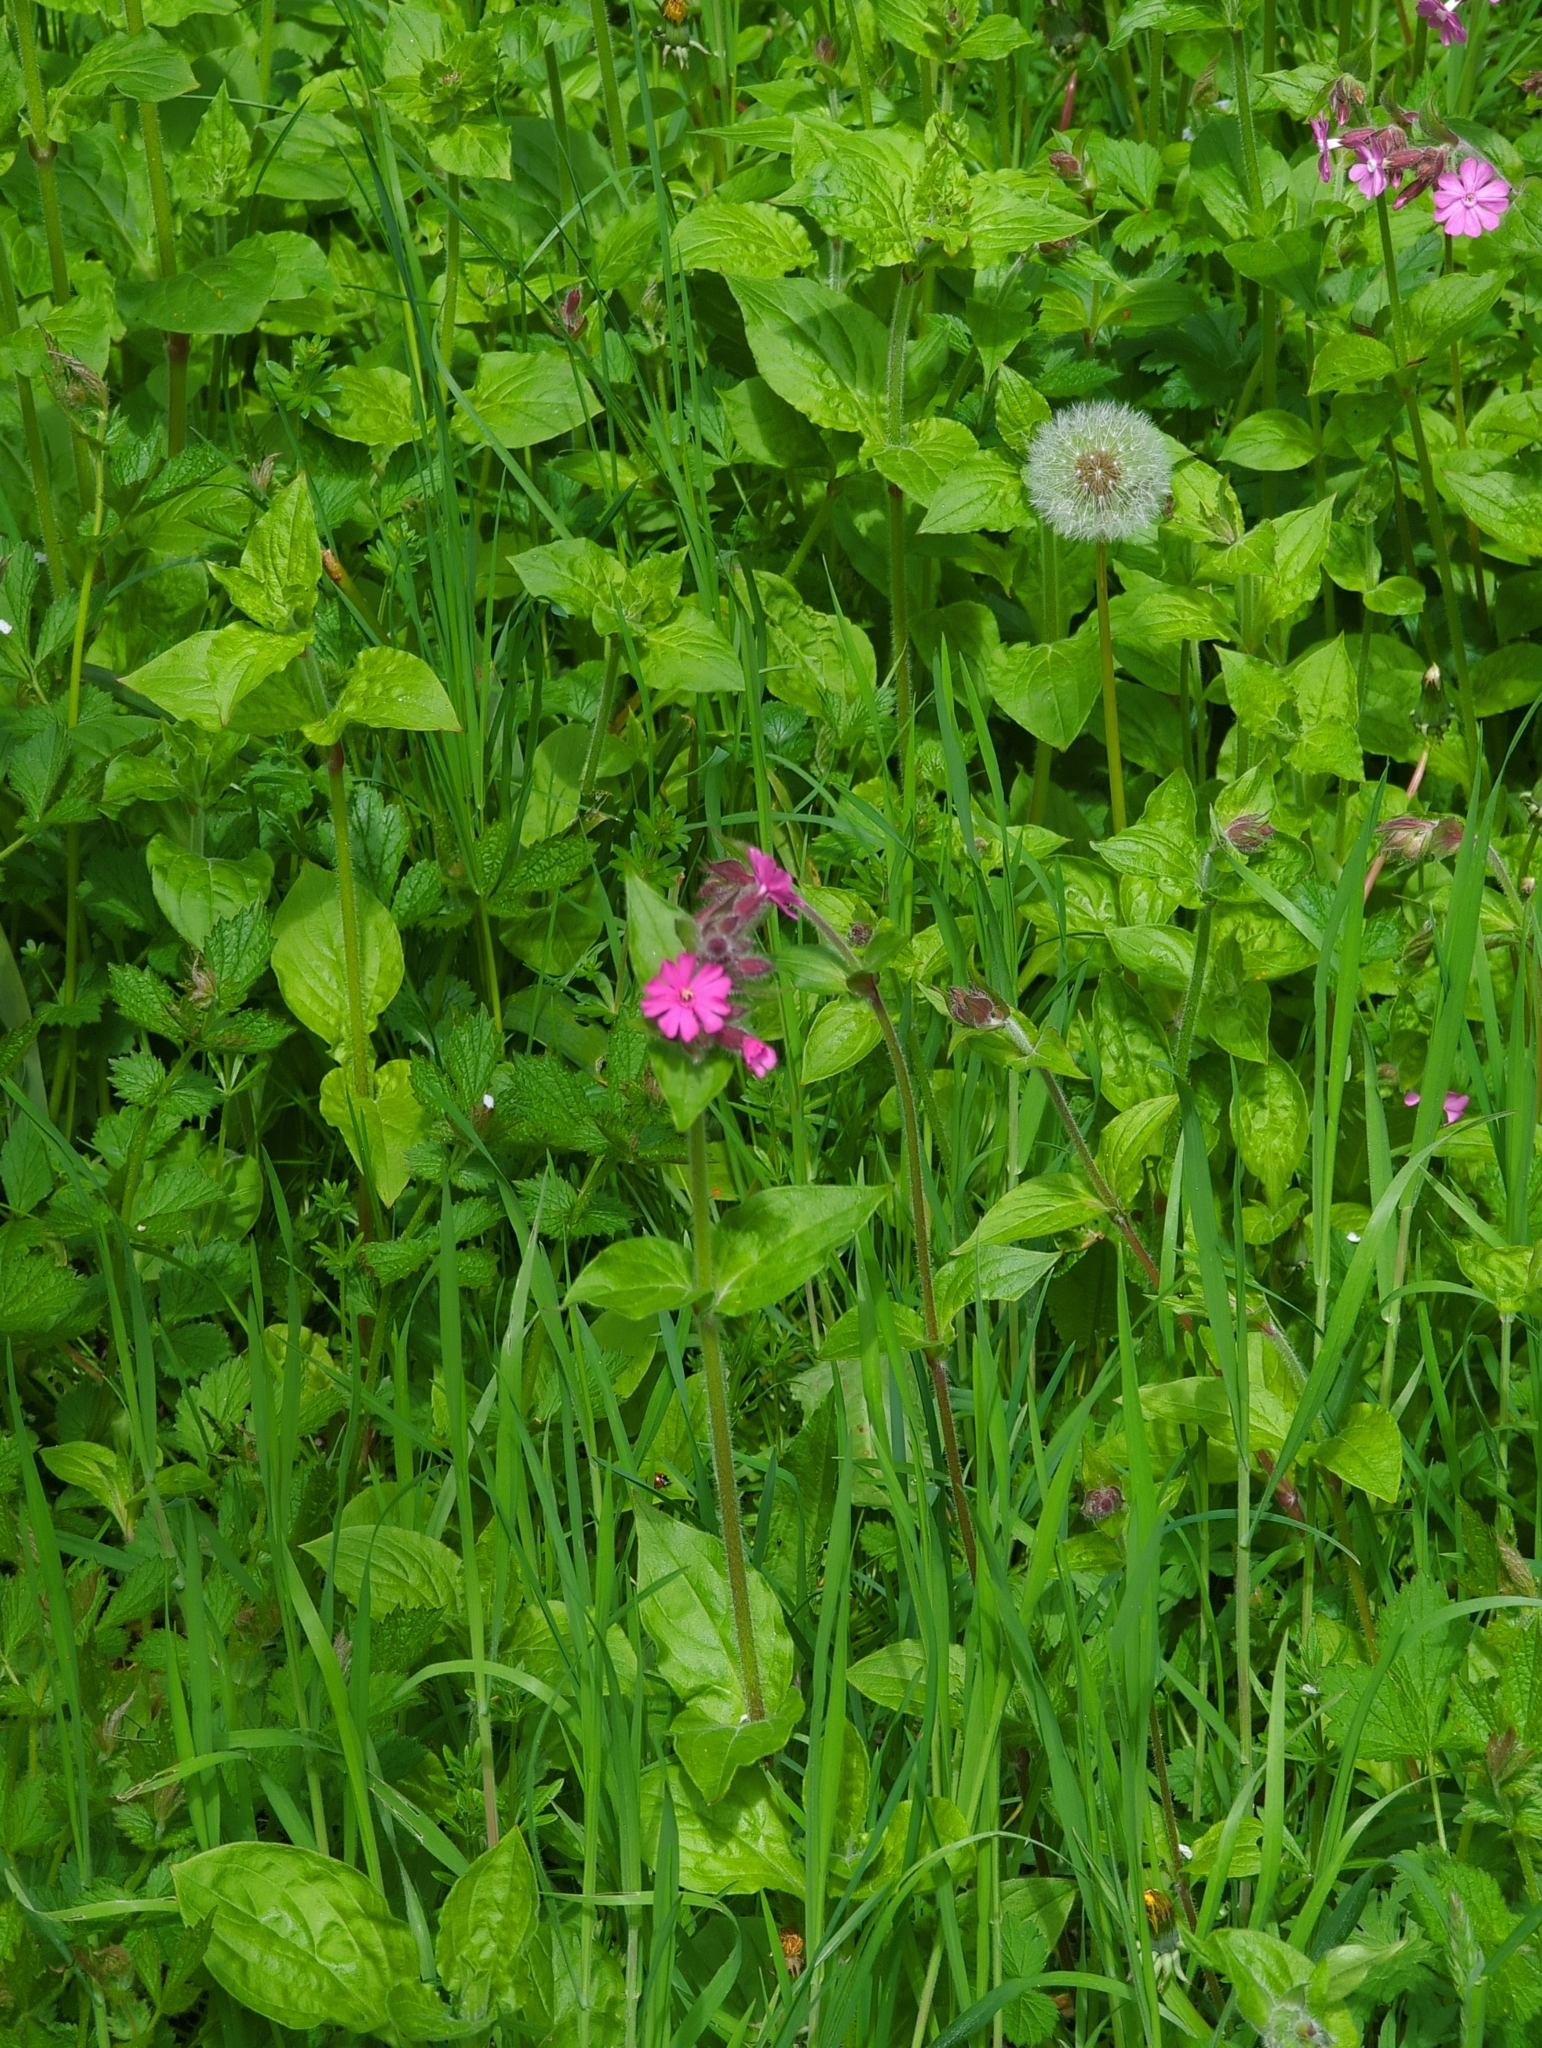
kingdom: Plantae
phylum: Tracheophyta
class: Magnoliopsida
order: Caryophyllales
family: Caryophyllaceae
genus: Silene
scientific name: Silene dioica
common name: Red campion
